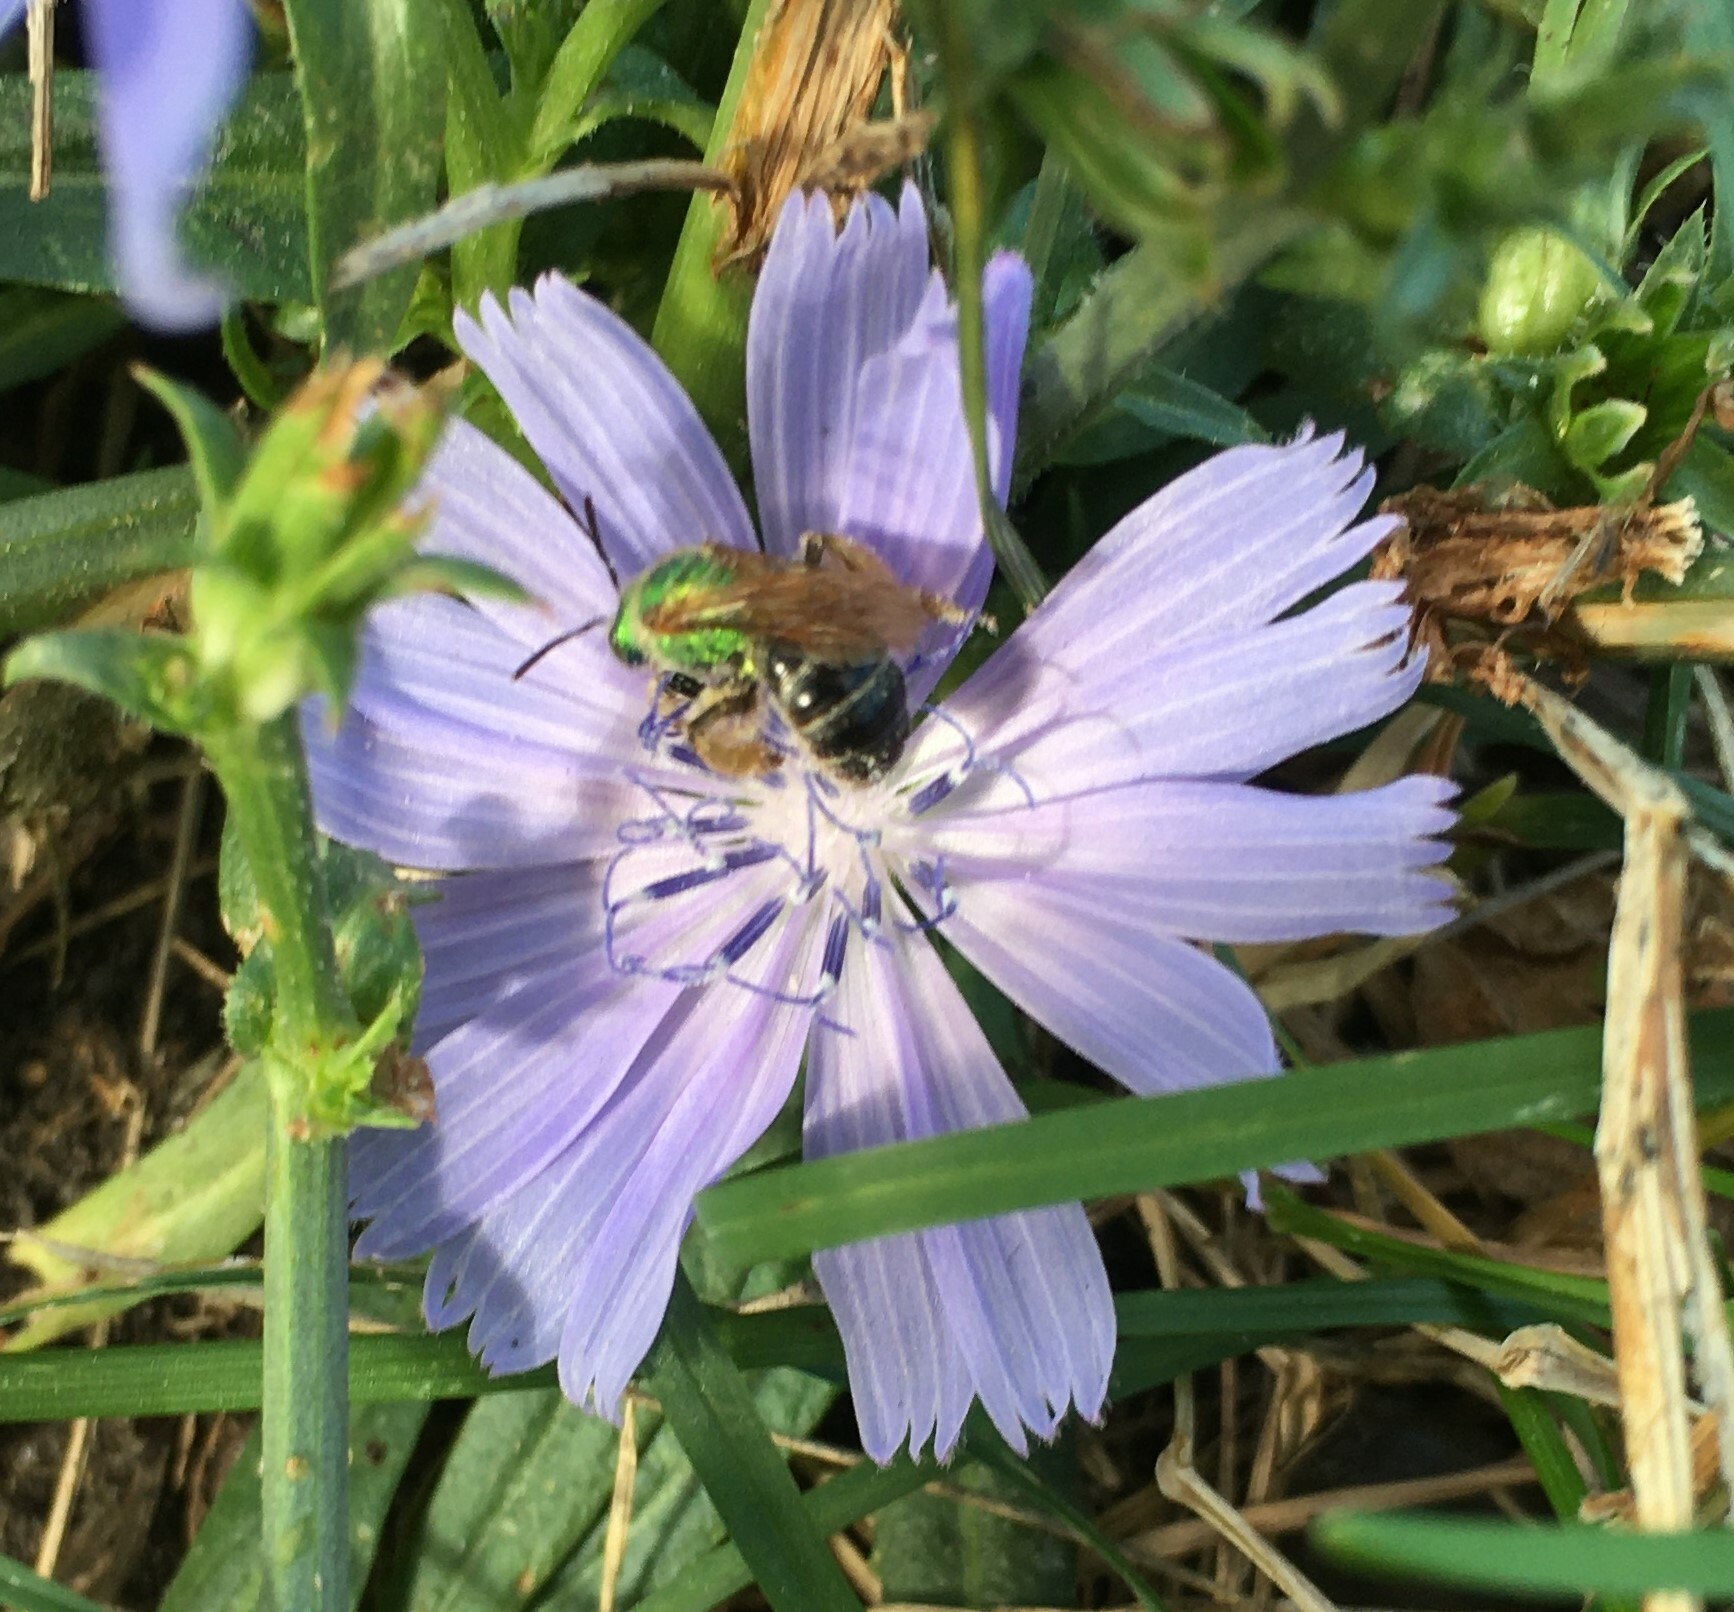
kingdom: Animalia
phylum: Arthropoda
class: Insecta
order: Hymenoptera
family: Halictidae
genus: Agapostemon
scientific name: Agapostemon virescens
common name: Bicolored striped sweat bee
